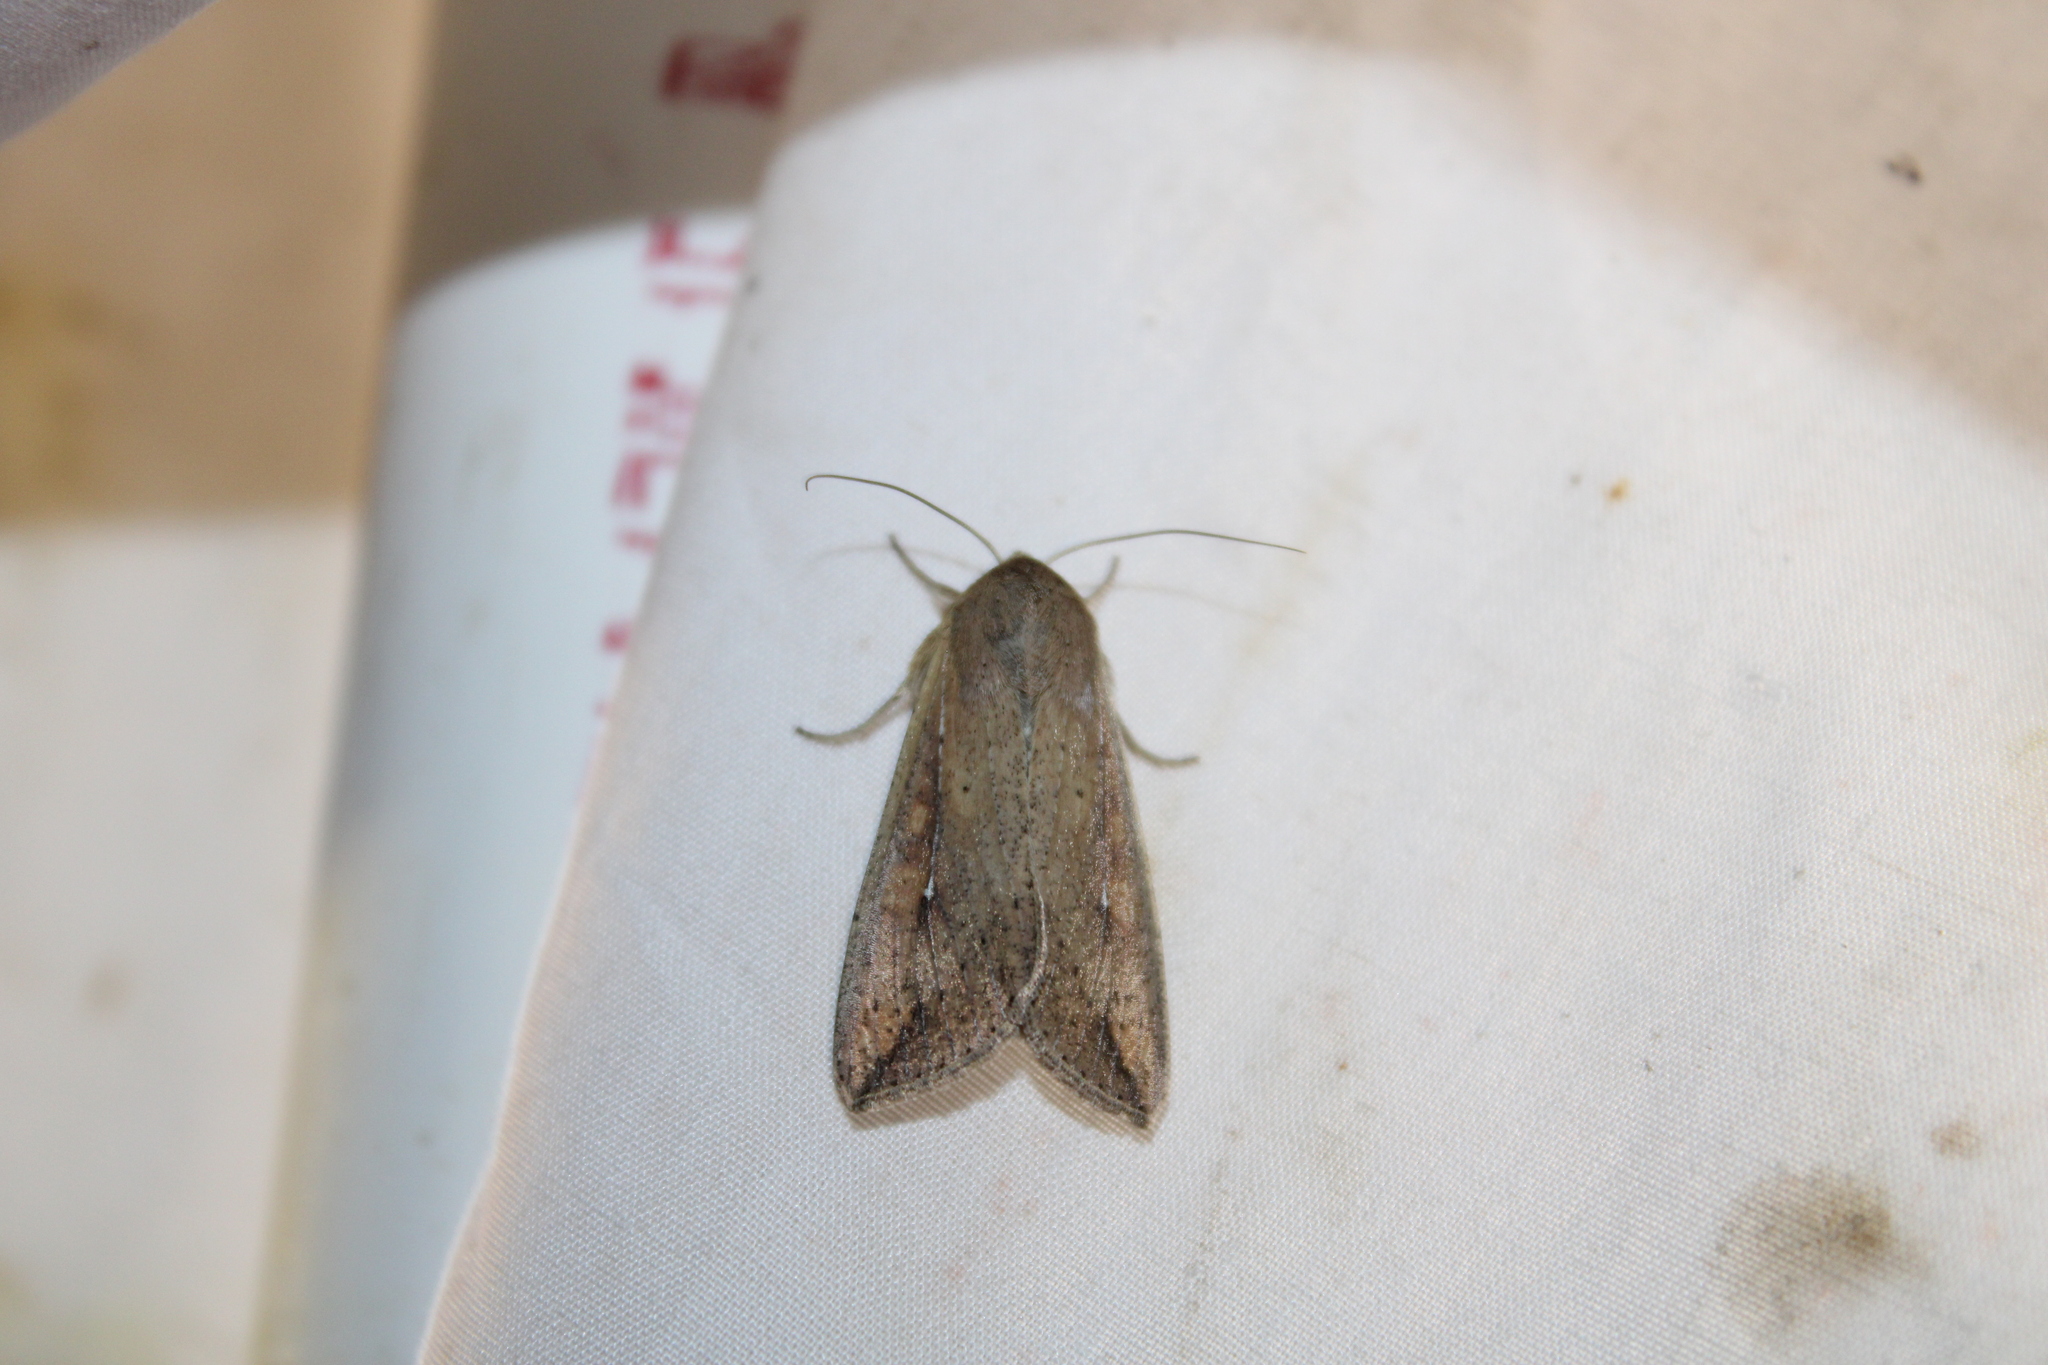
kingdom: Animalia
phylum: Arthropoda
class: Insecta
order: Lepidoptera
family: Noctuidae
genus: Mythimna
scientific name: Mythimna unipuncta
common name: White-speck
